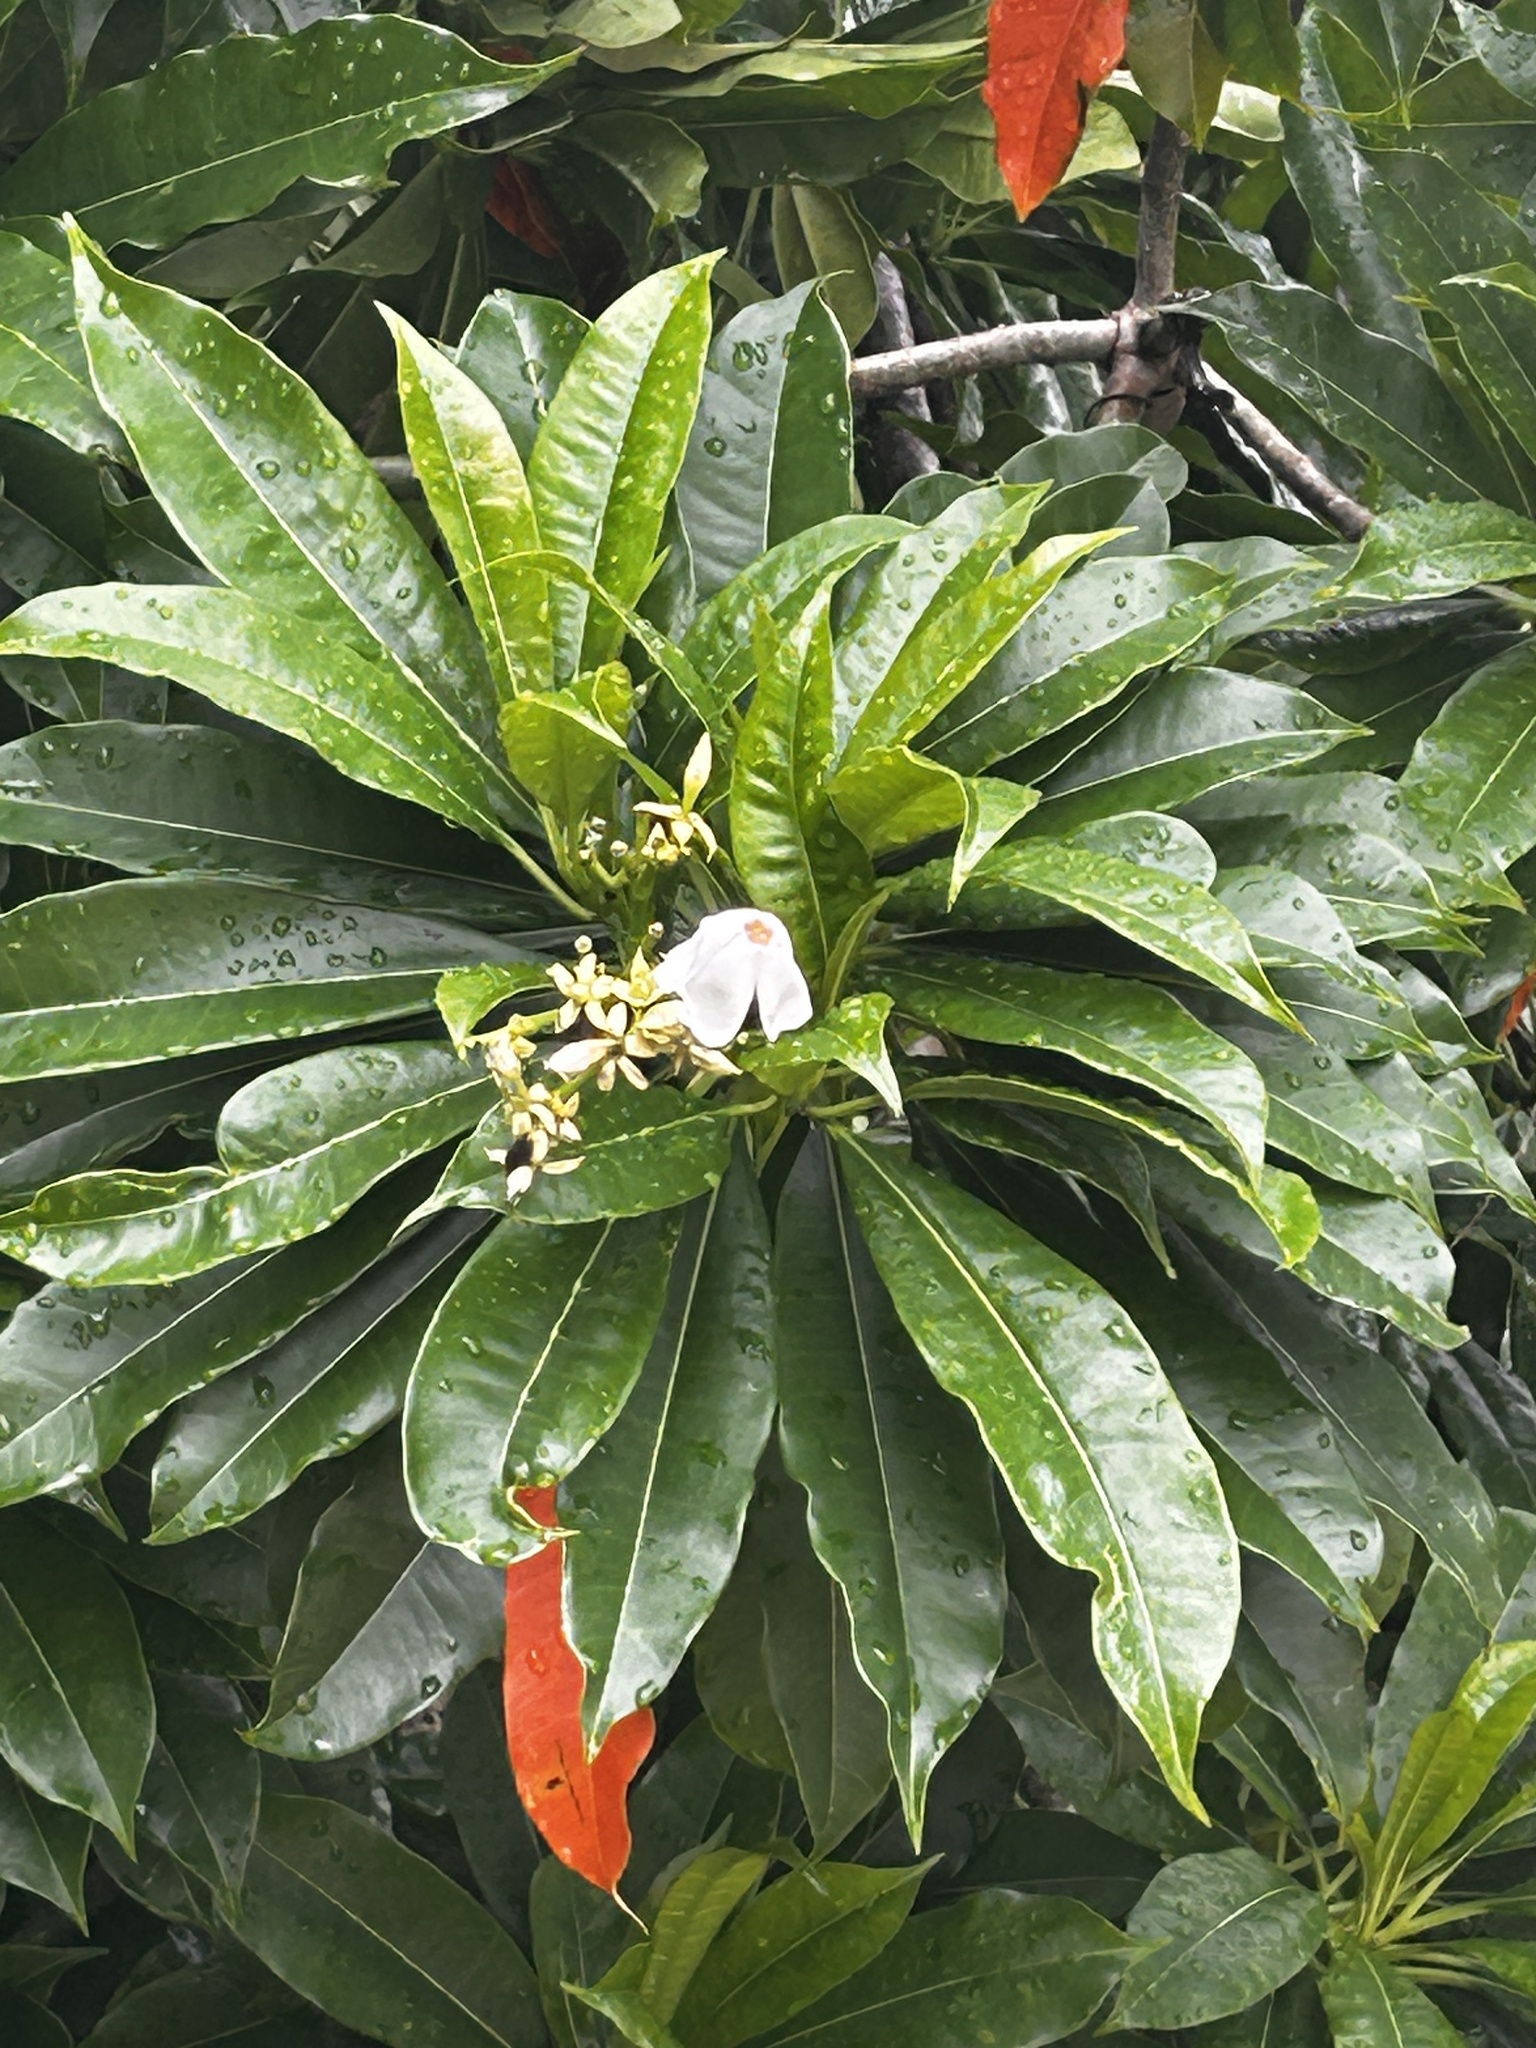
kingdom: Plantae
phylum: Tracheophyta
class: Magnoliopsida
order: Gentianales
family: Apocynaceae
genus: Cerbera
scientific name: Cerbera manghas
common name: Reva
